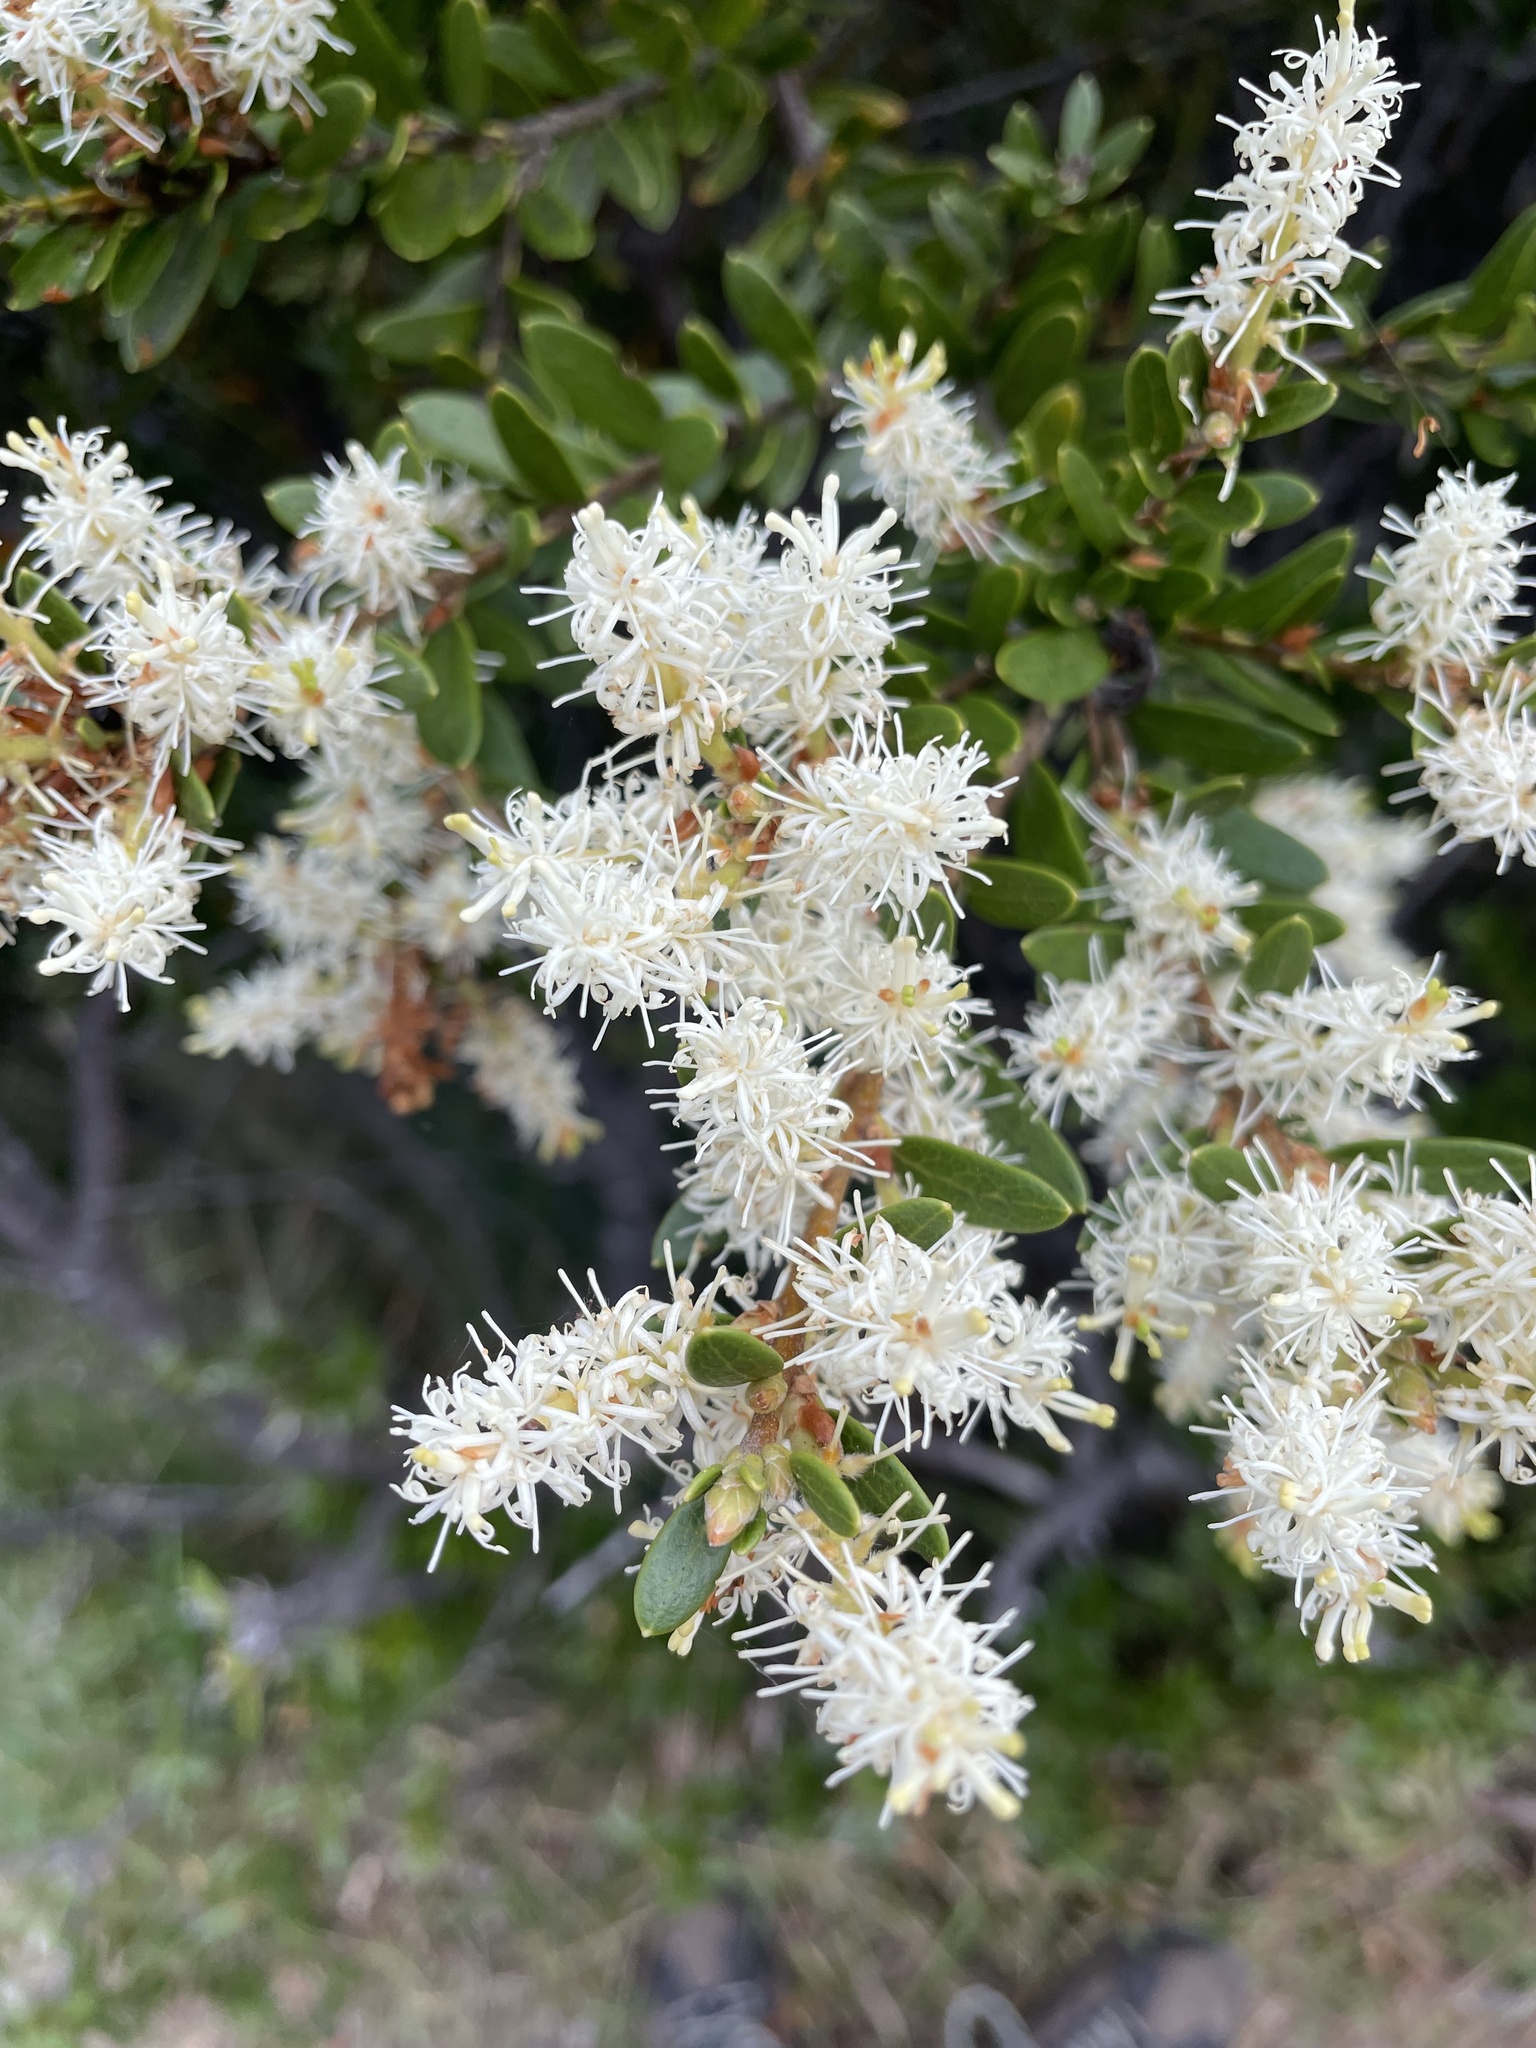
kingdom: Plantae
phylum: Tracheophyta
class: Magnoliopsida
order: Proteales
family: Proteaceae
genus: Orites
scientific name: Orites lancifolius
